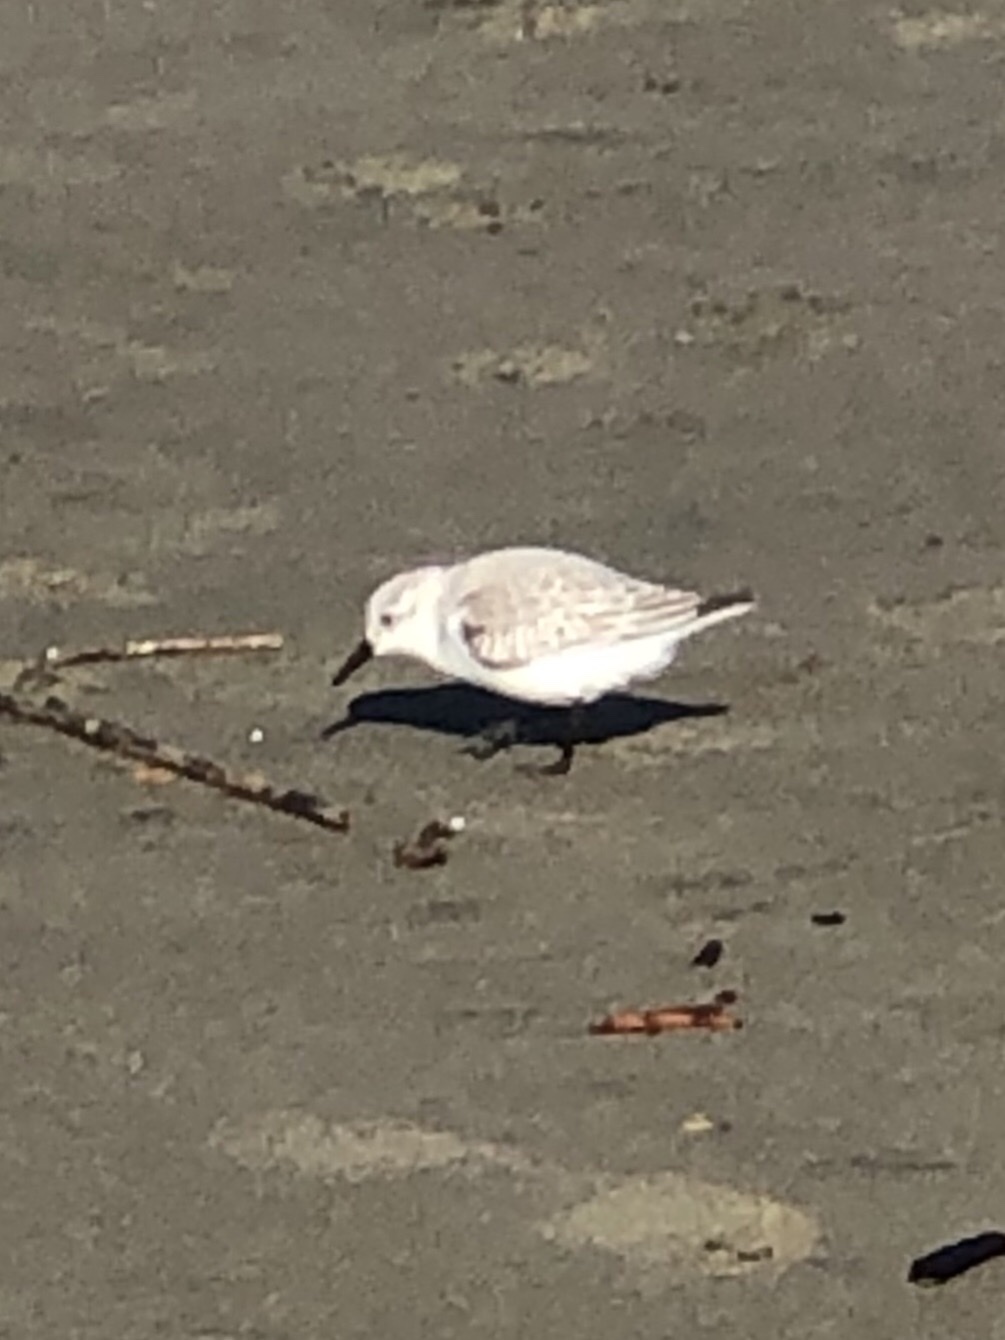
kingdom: Animalia
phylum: Chordata
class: Aves
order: Charadriiformes
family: Scolopacidae
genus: Calidris
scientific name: Calidris alba
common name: Sanderling
